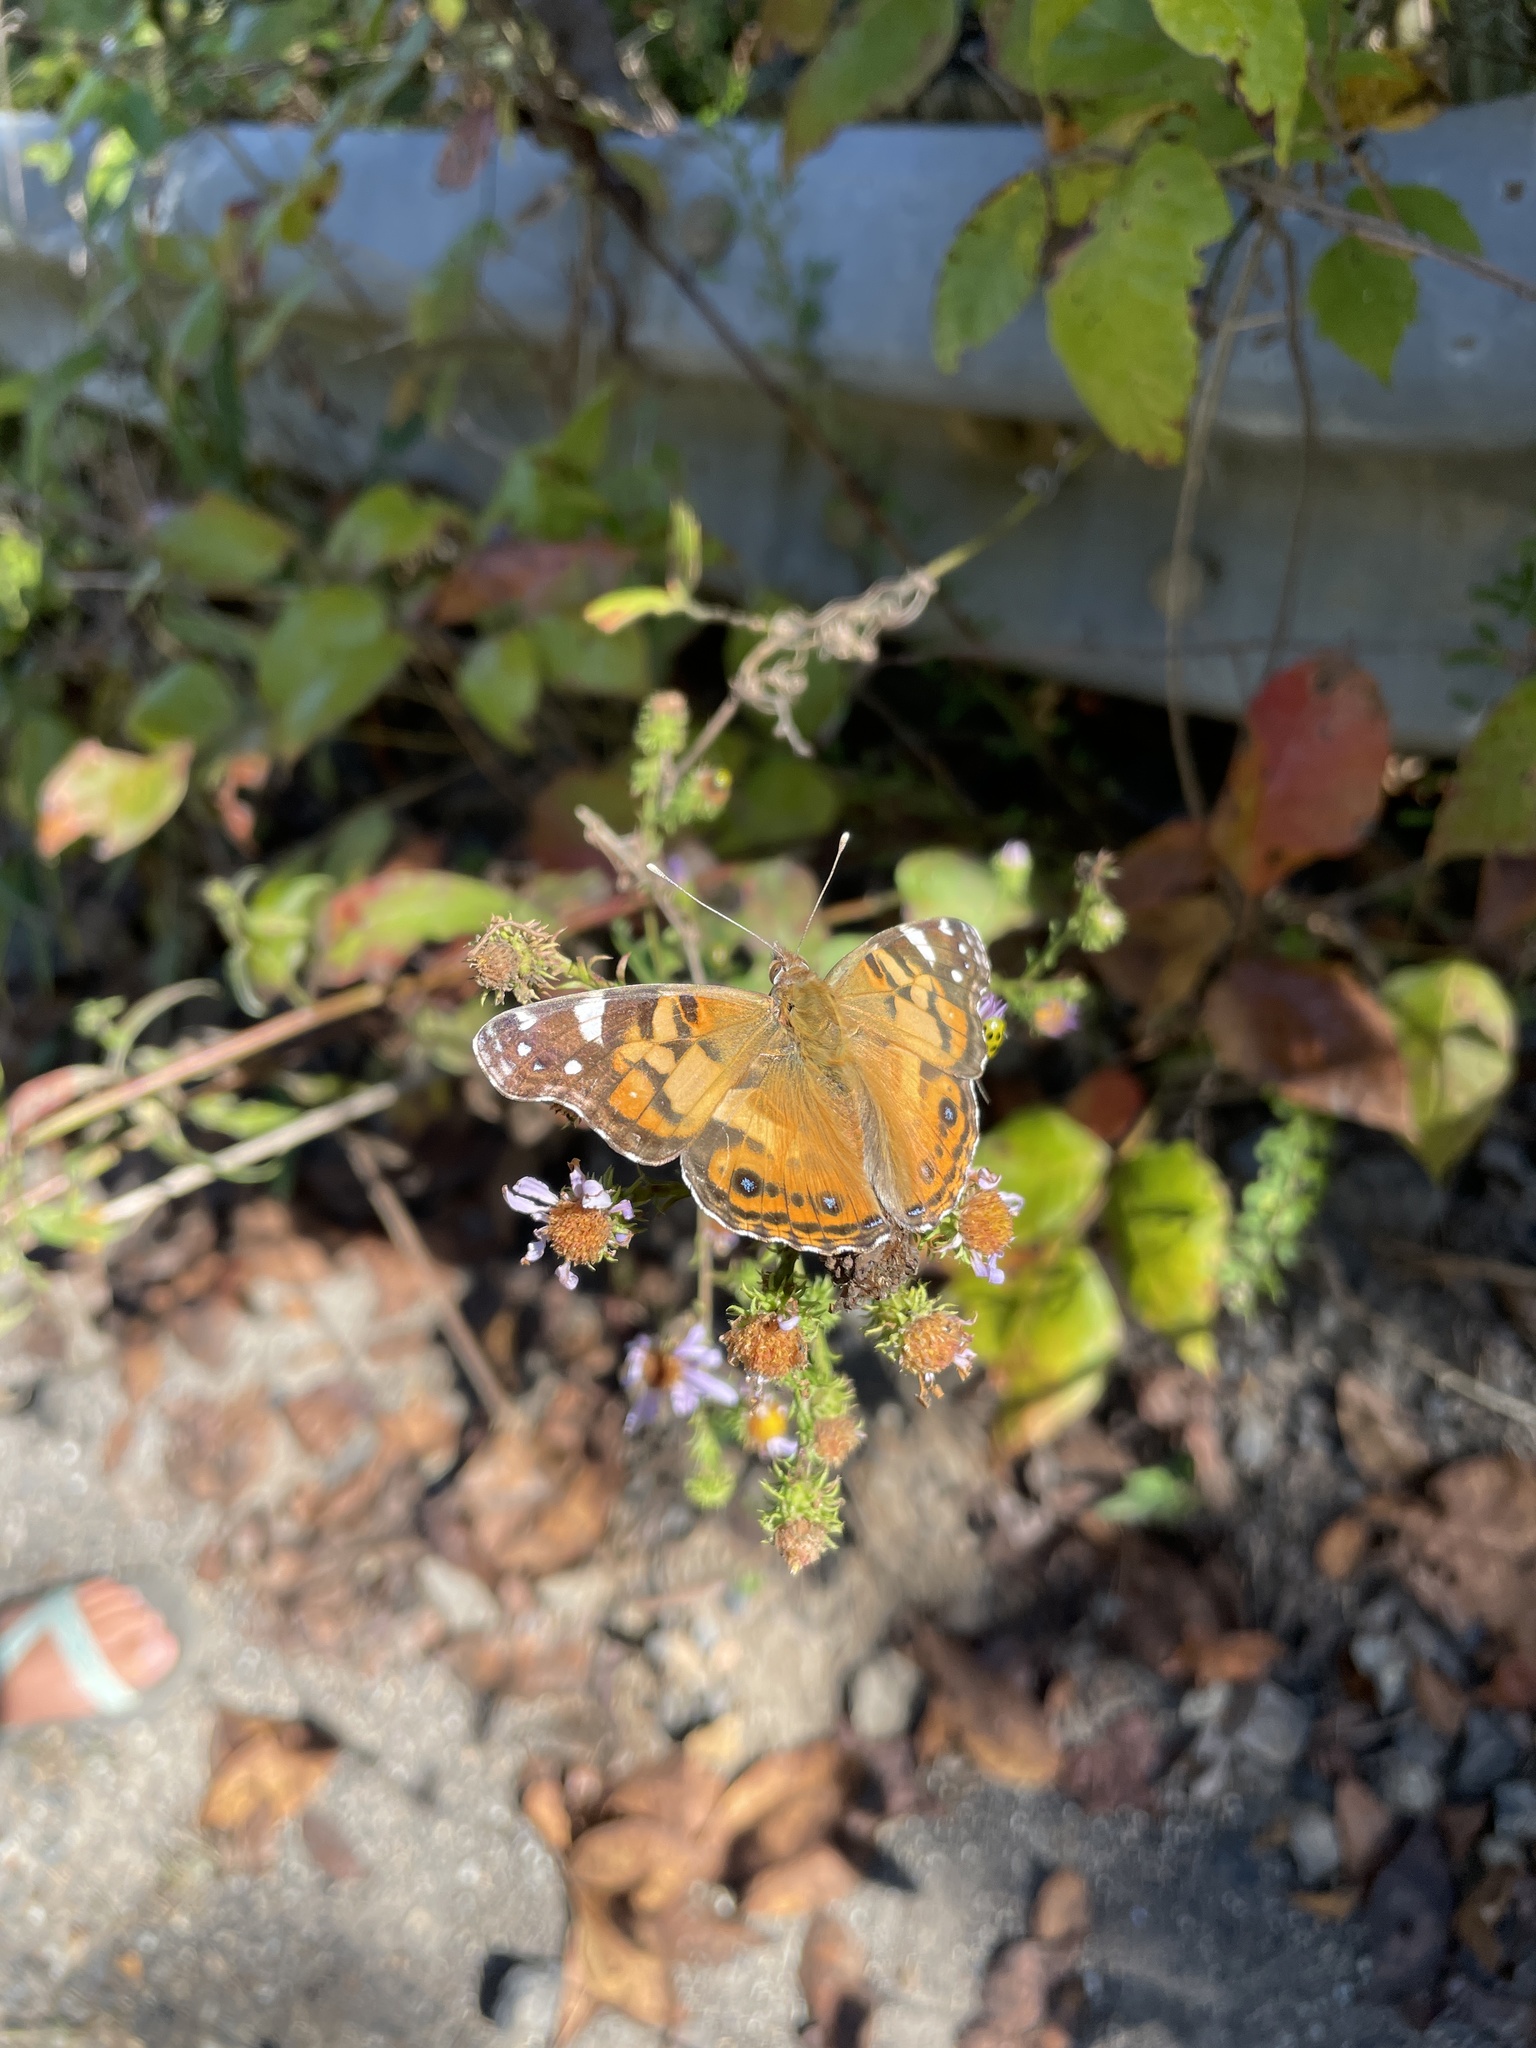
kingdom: Animalia
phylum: Arthropoda
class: Insecta
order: Lepidoptera
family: Nymphalidae
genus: Vanessa
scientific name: Vanessa virginiensis
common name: American lady
